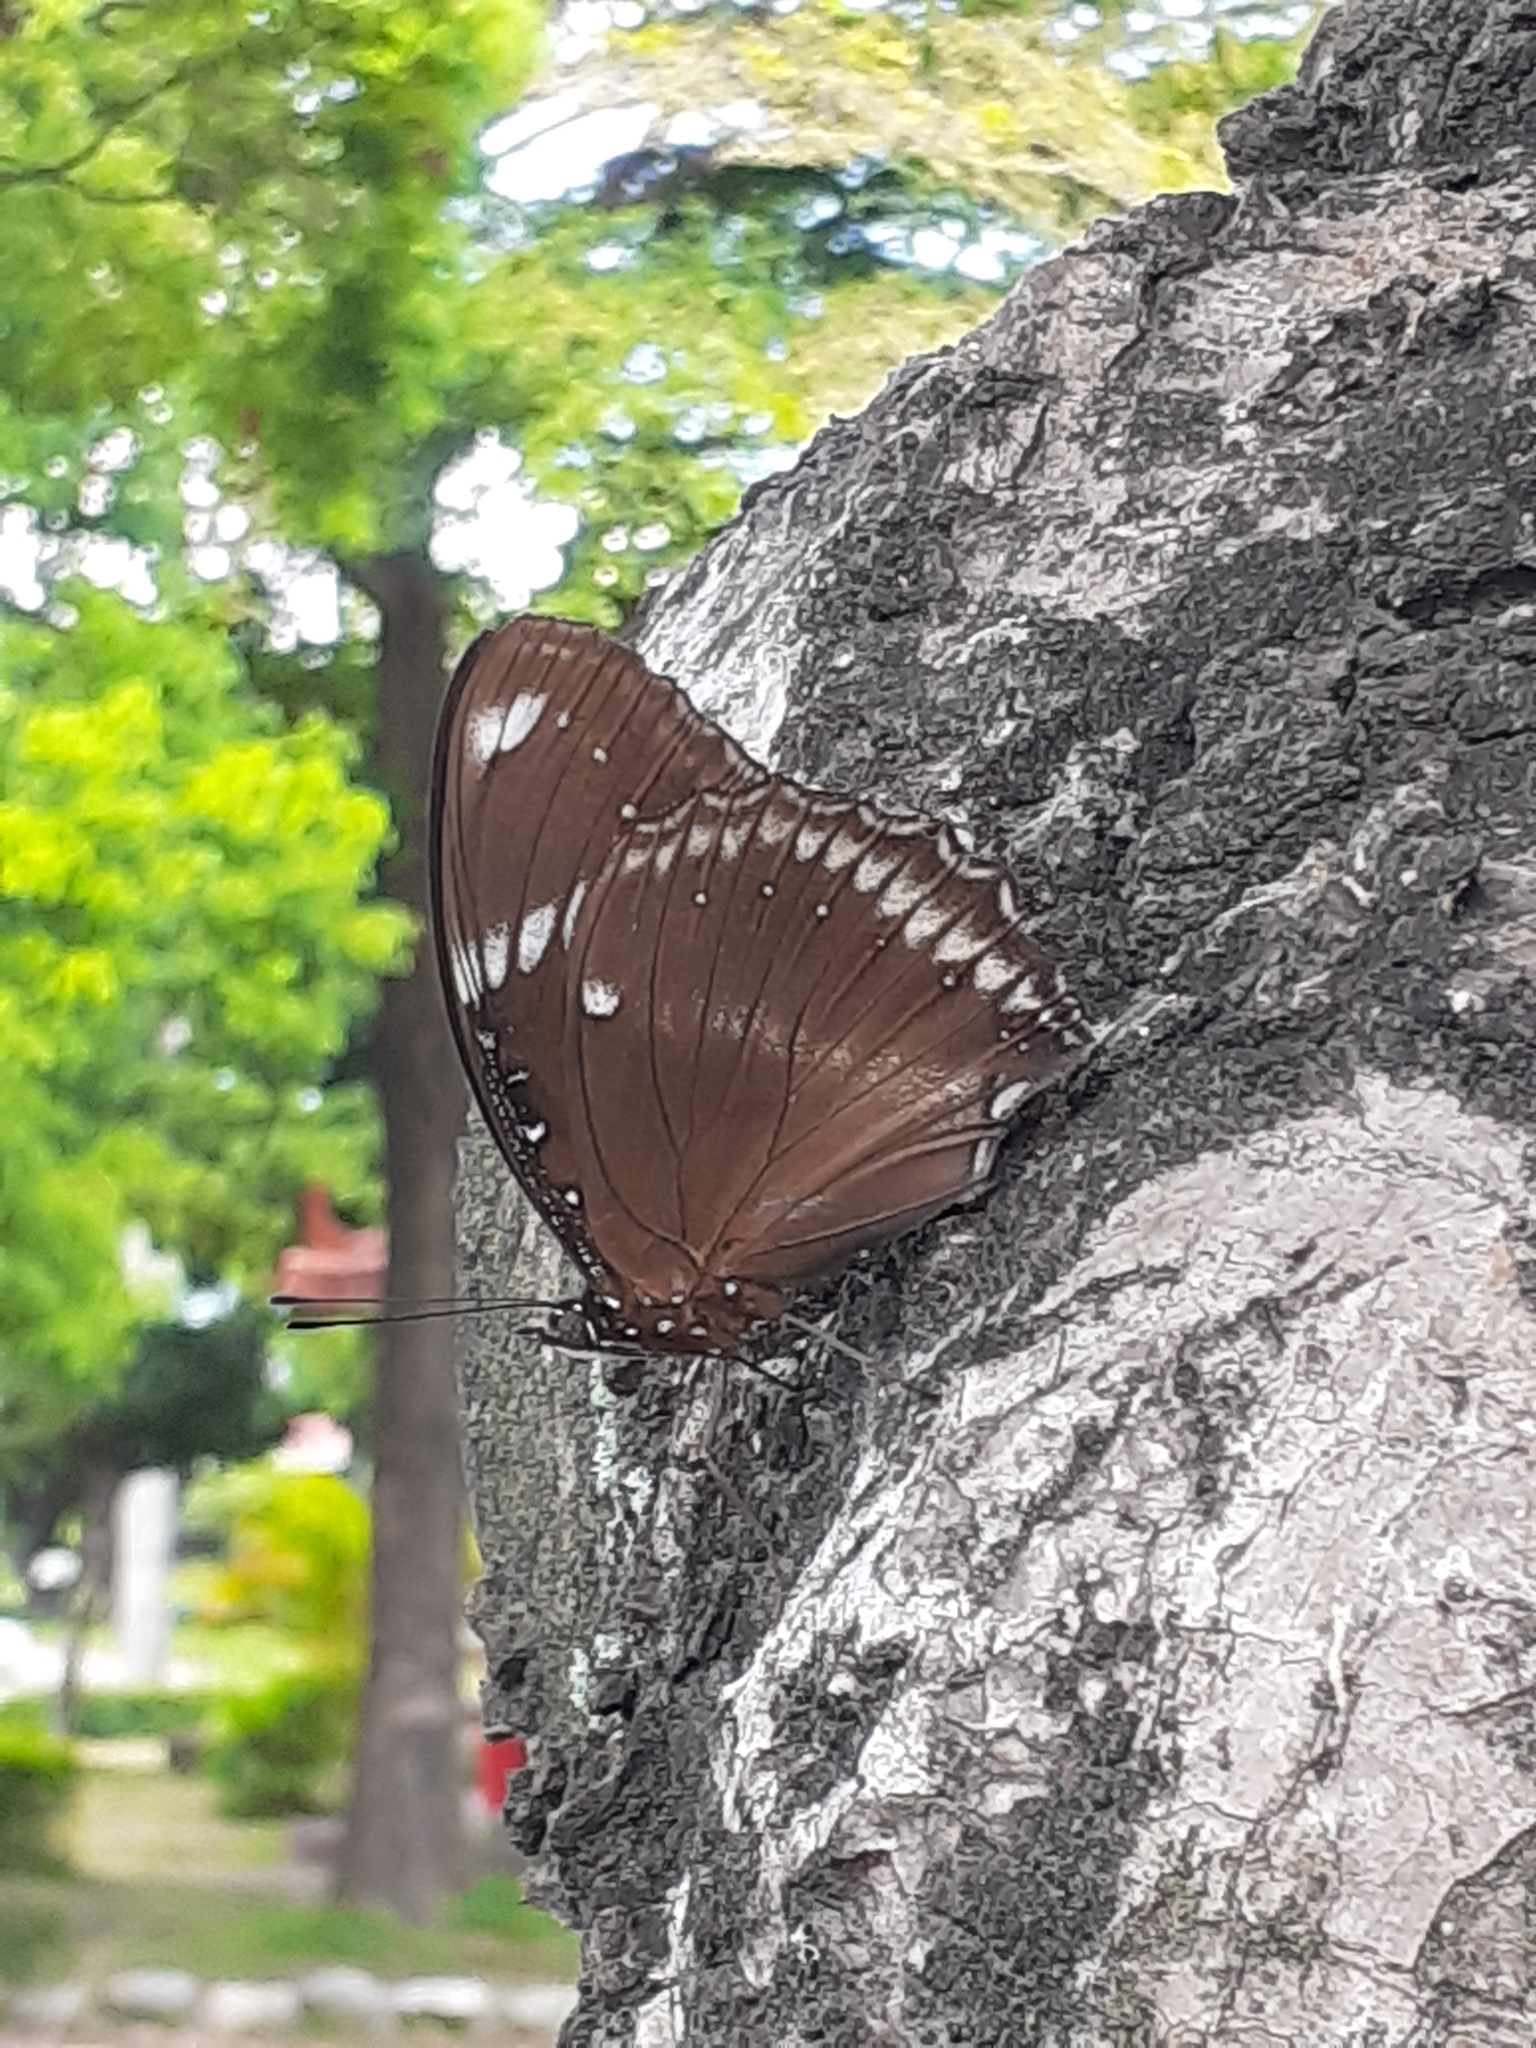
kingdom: Animalia
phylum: Arthropoda
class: Insecta
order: Lepidoptera
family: Nymphalidae
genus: Hypolimnas
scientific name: Hypolimnas bolina
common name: Great eggfly
